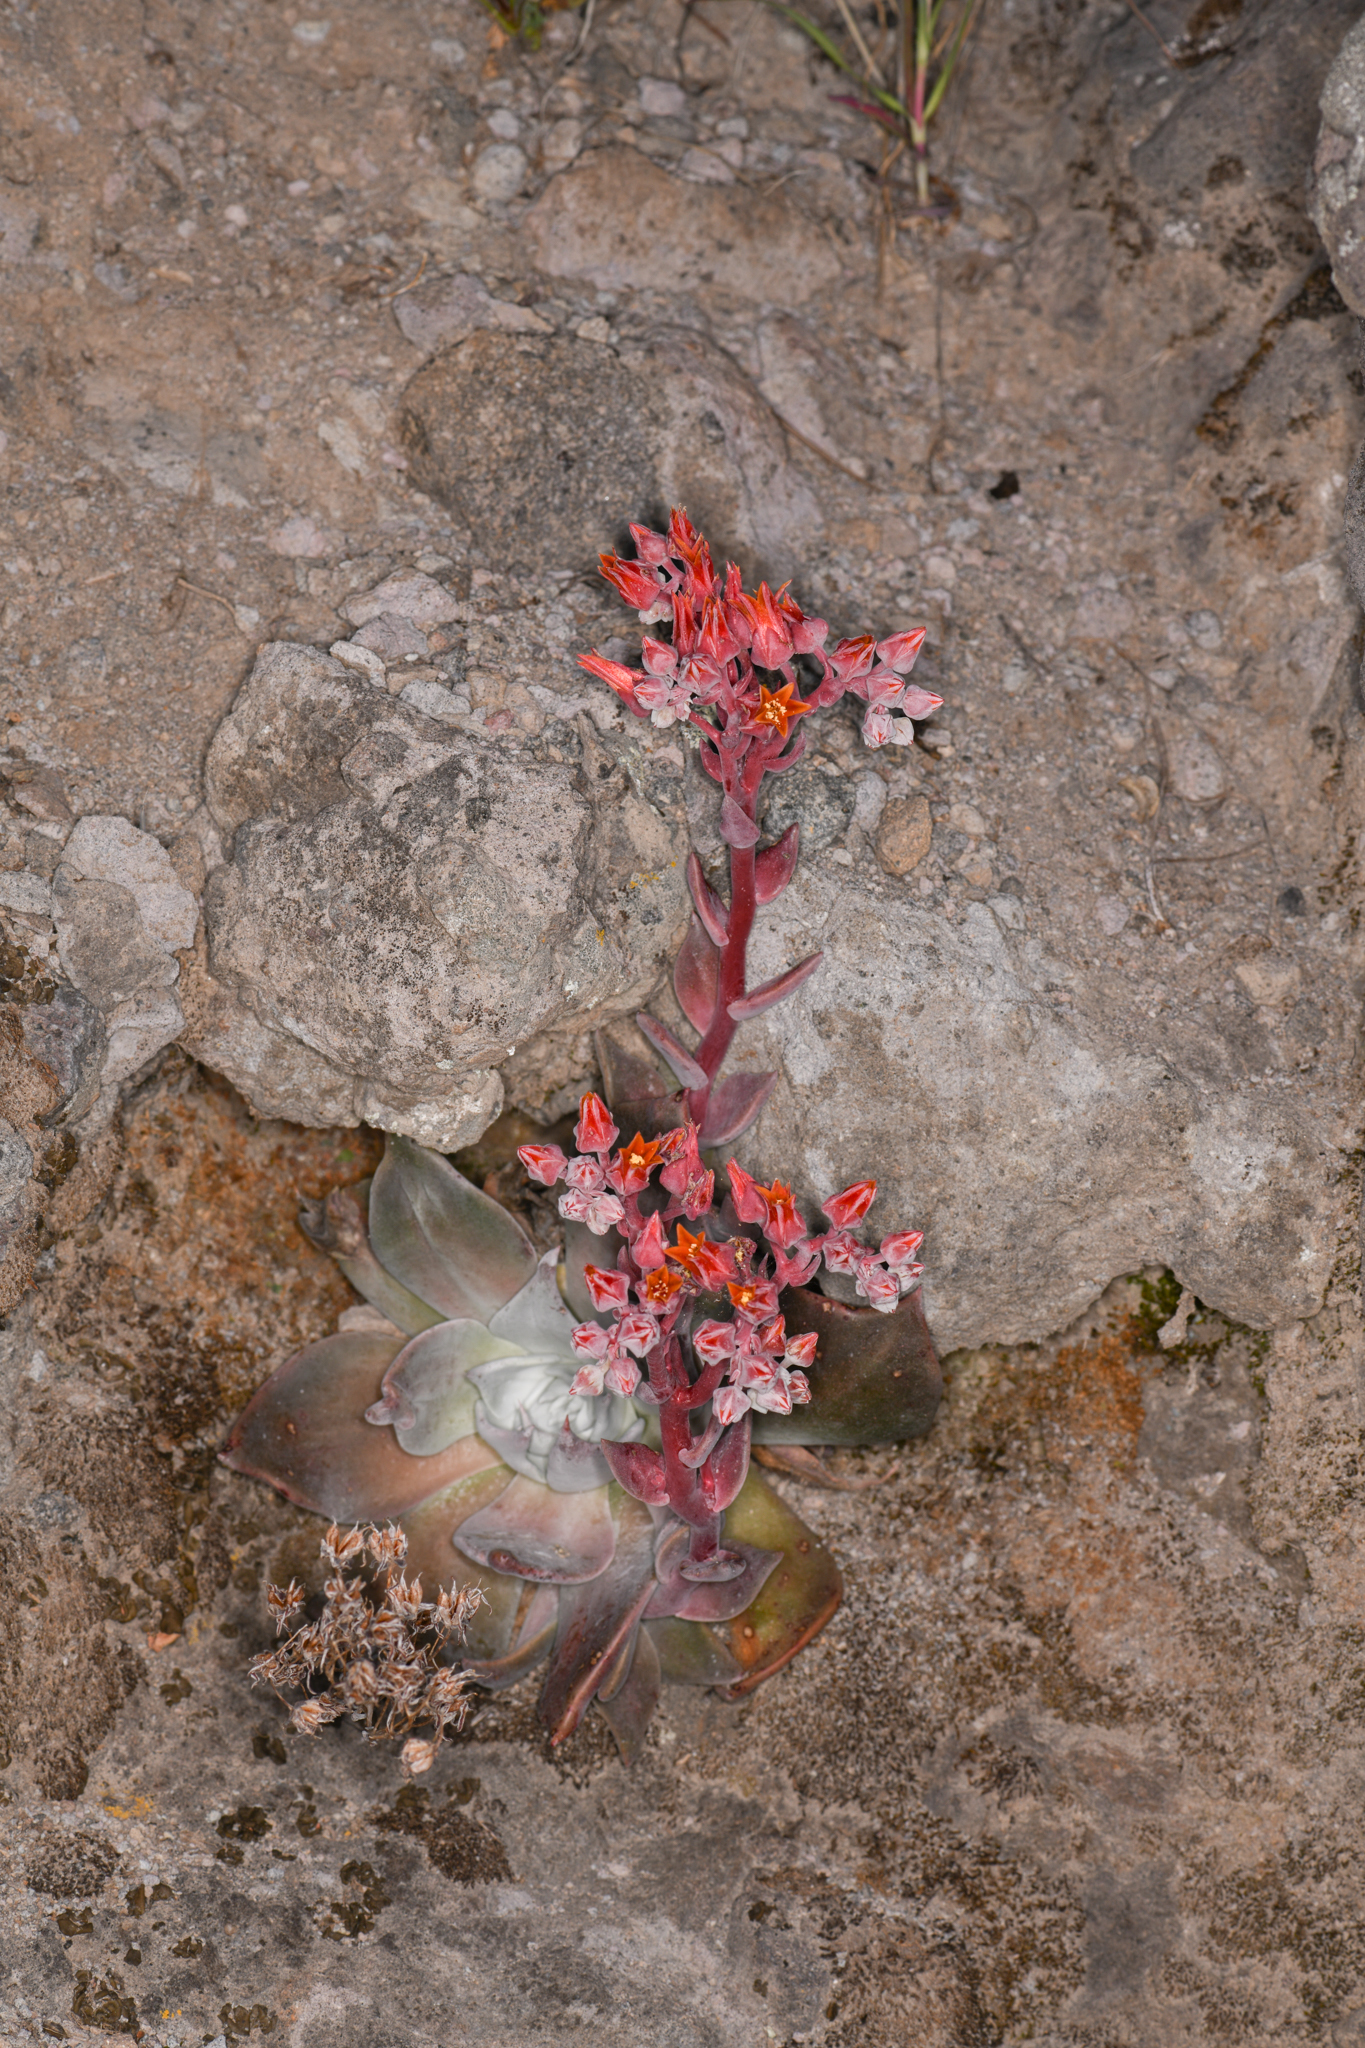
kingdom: Plantae
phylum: Tracheophyta
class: Magnoliopsida
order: Saxifragales
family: Crassulaceae
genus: Dudleya
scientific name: Dudleya cymosa
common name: Canyon dudleya
